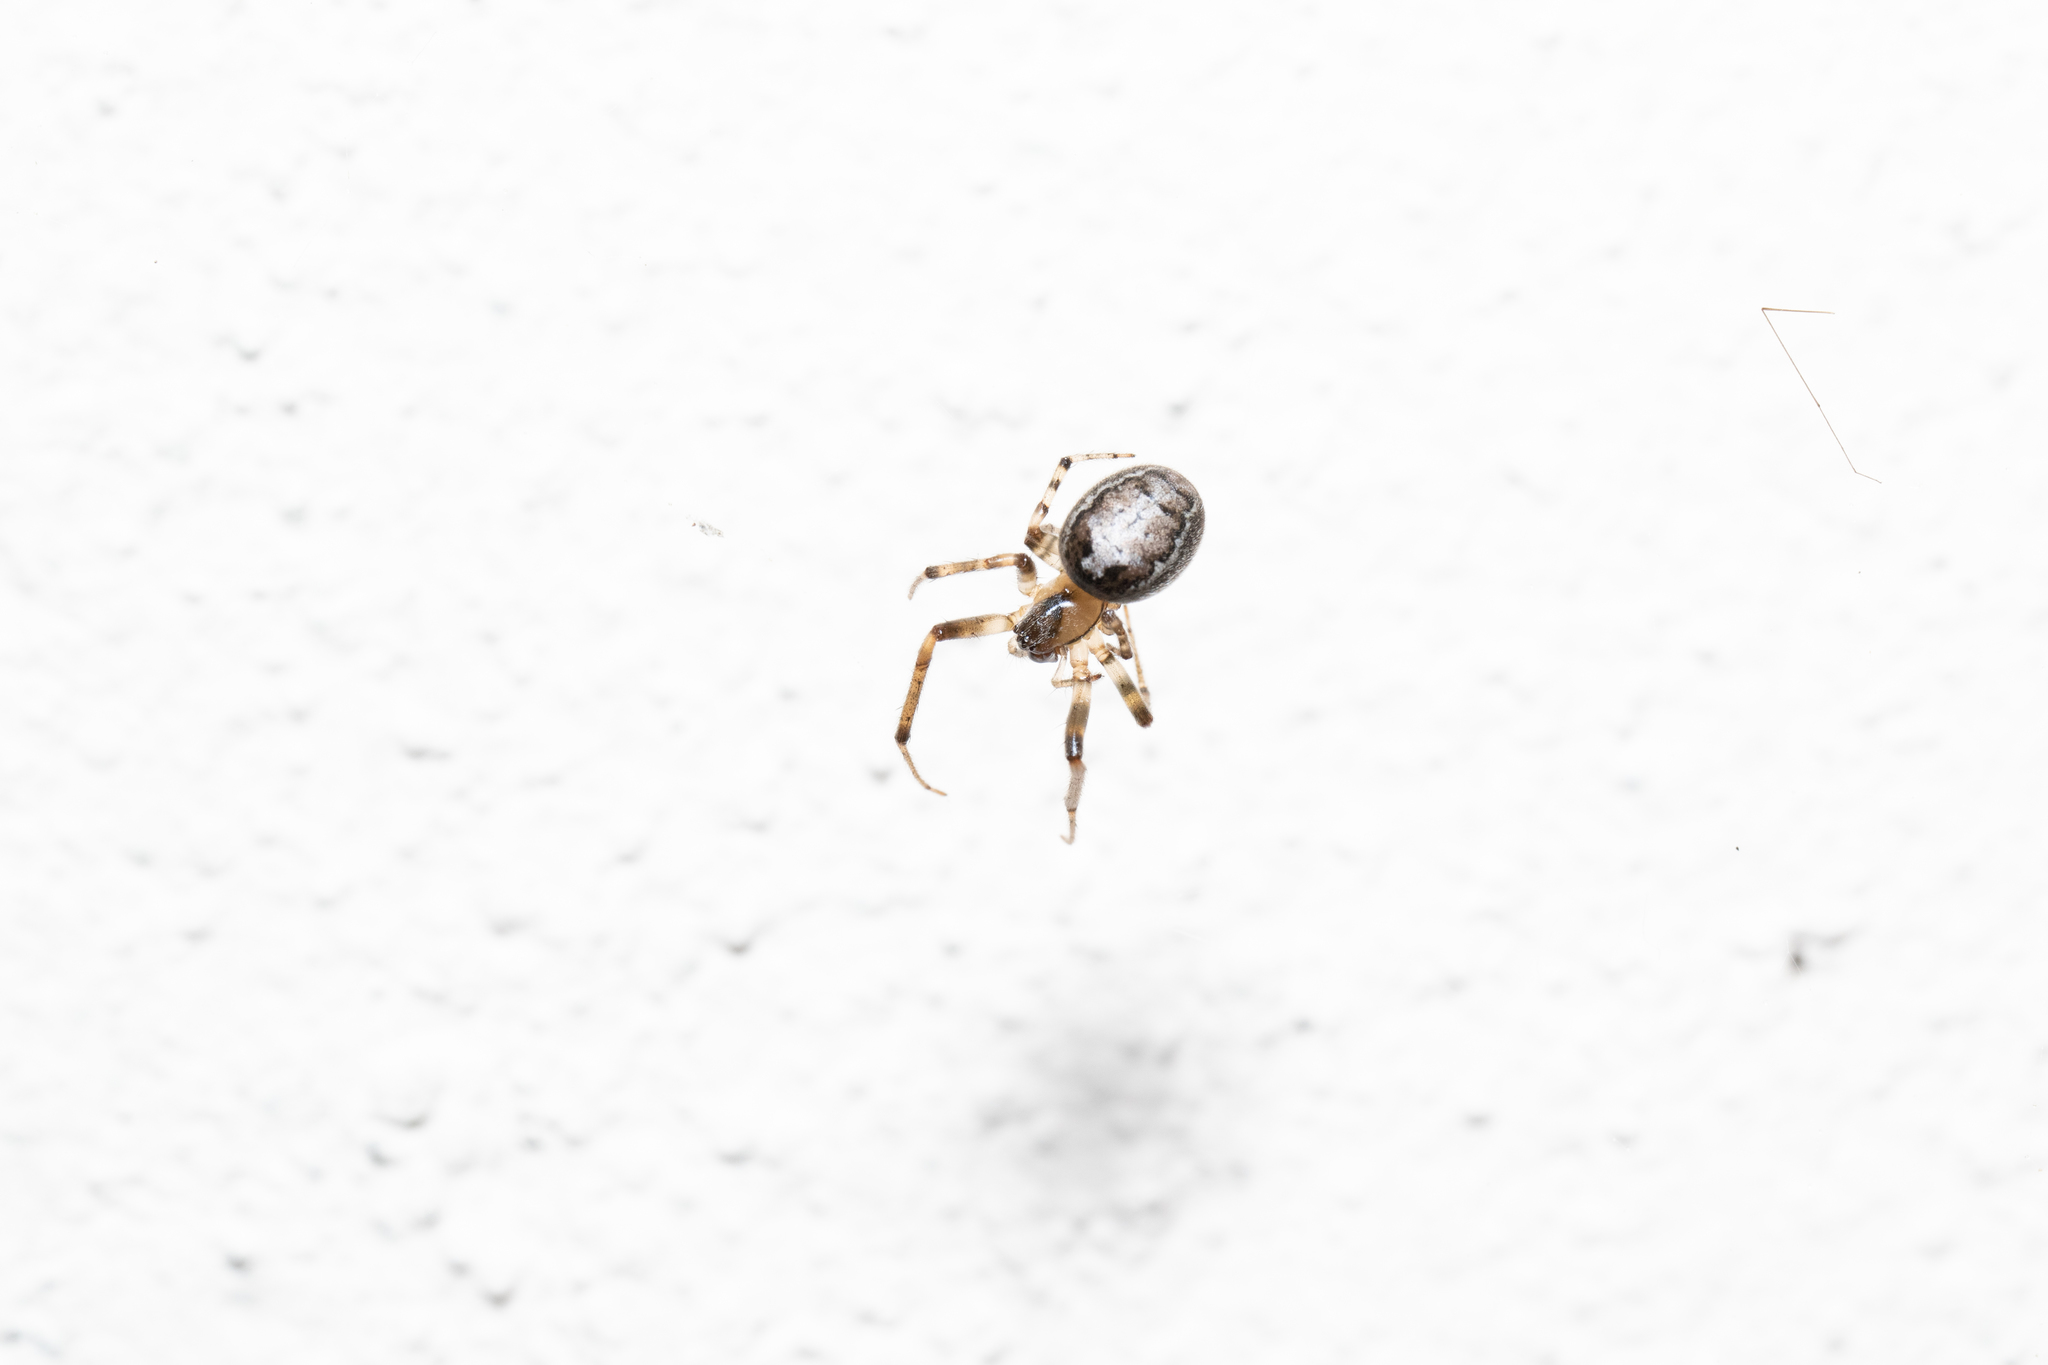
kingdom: Animalia
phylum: Arthropoda
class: Arachnida
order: Araneae
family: Araneidae
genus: Zygiella
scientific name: Zygiella x-notata
